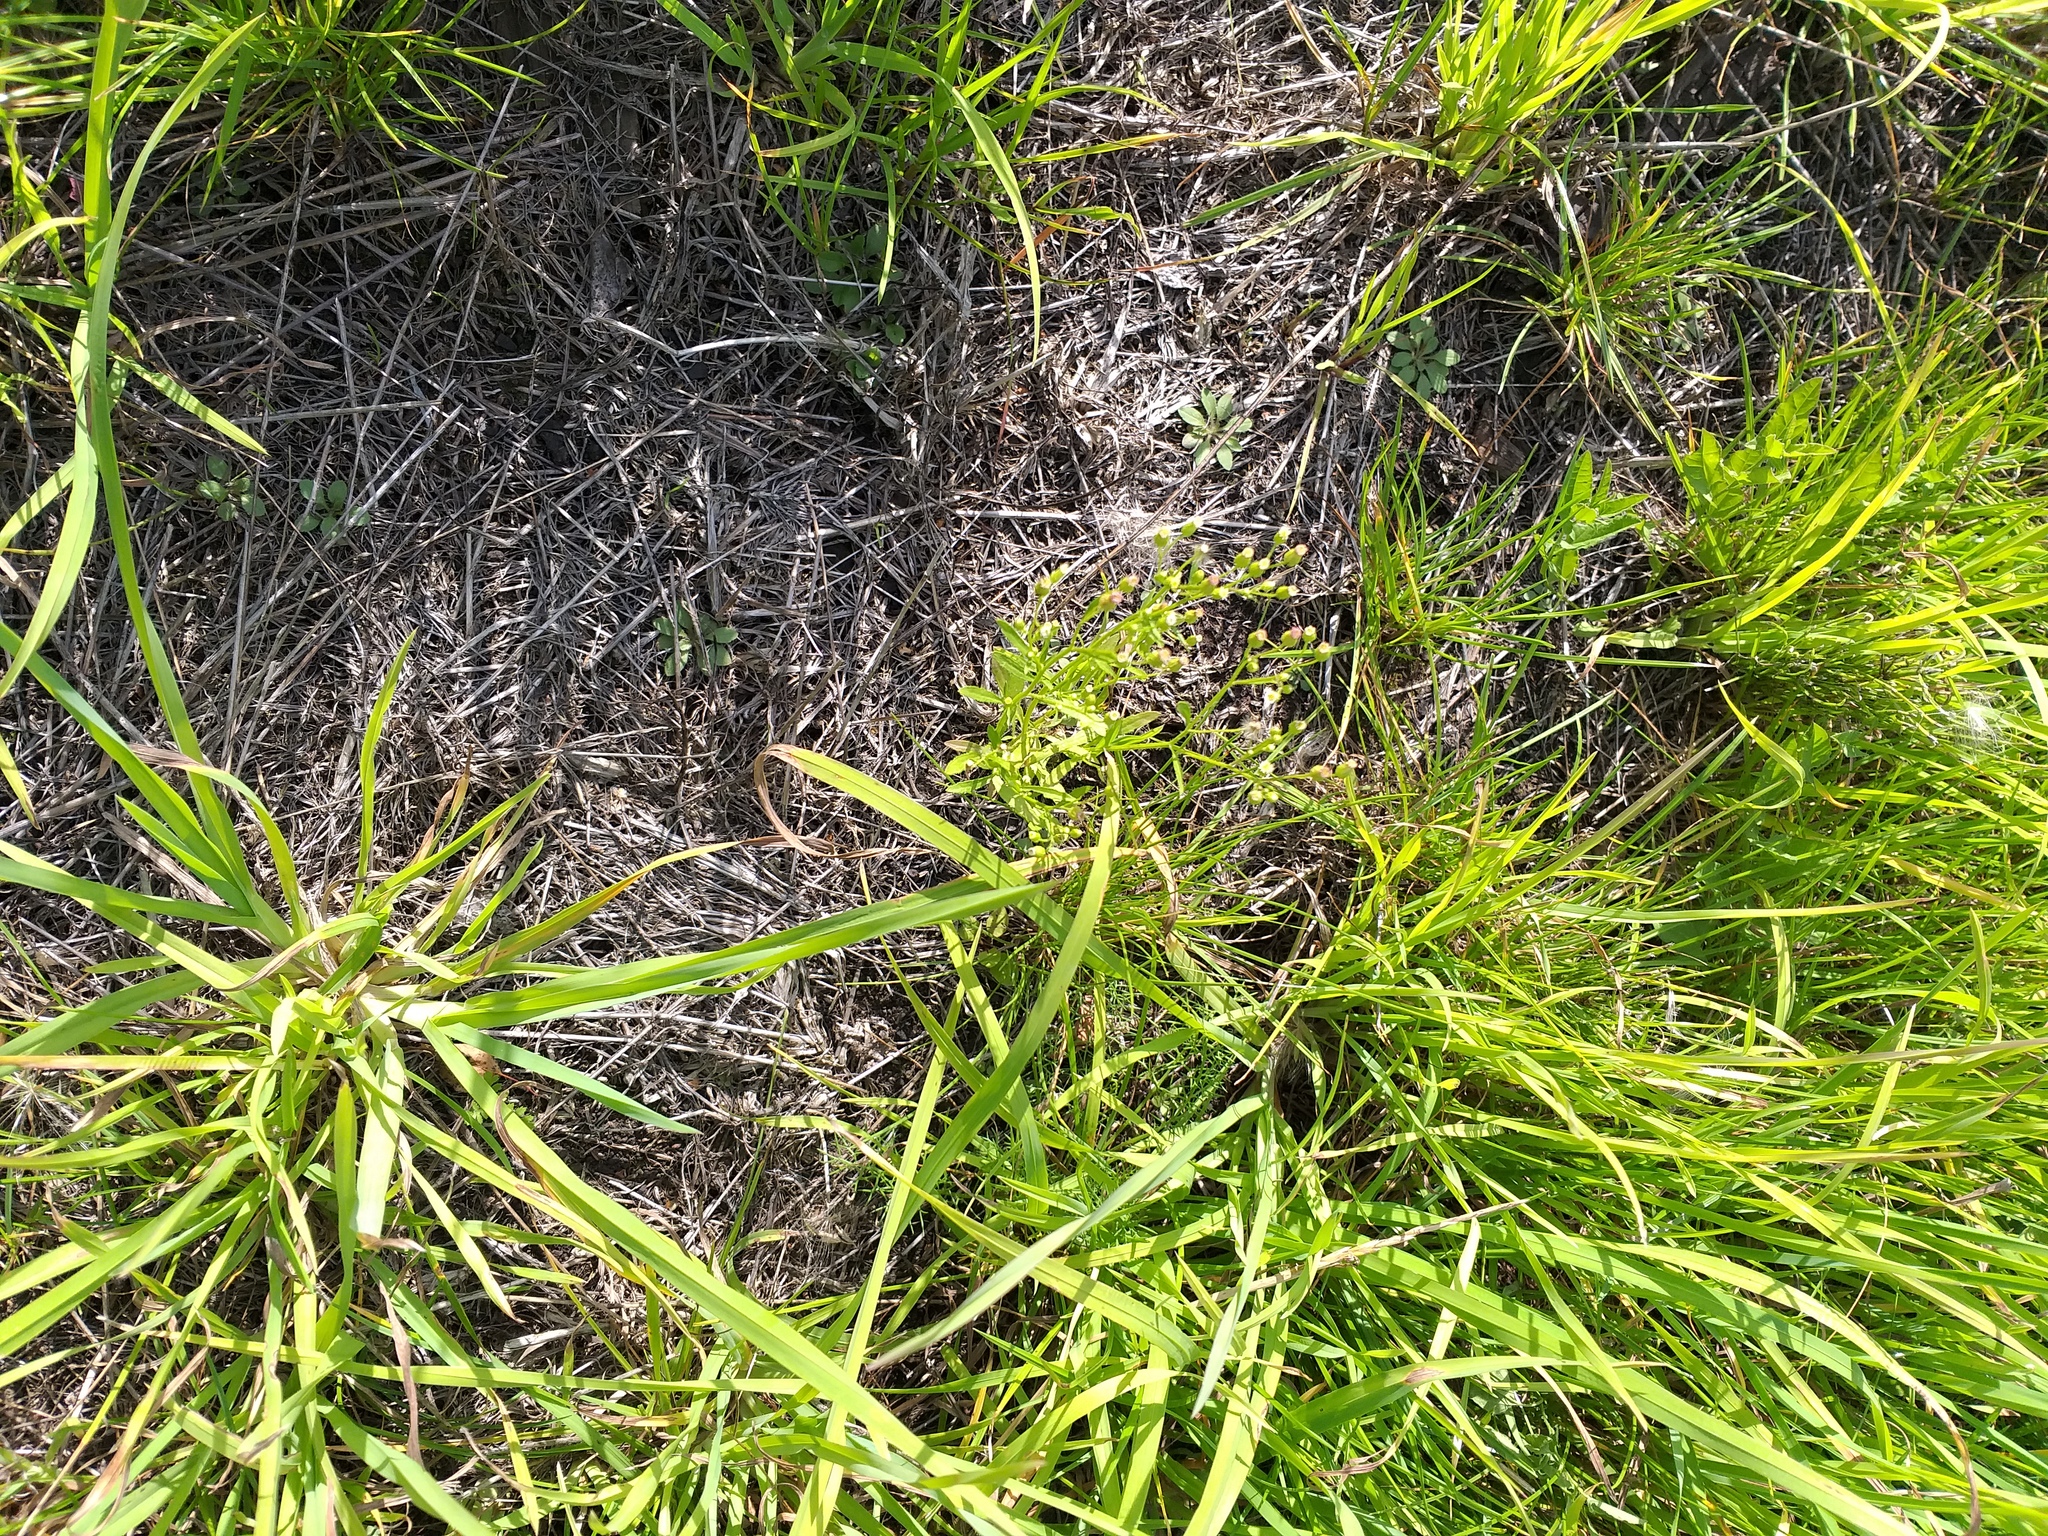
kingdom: Plantae
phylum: Tracheophyta
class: Magnoliopsida
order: Asterales
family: Asteraceae
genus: Erigeron
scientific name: Erigeron canadensis
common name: Canadian fleabane
